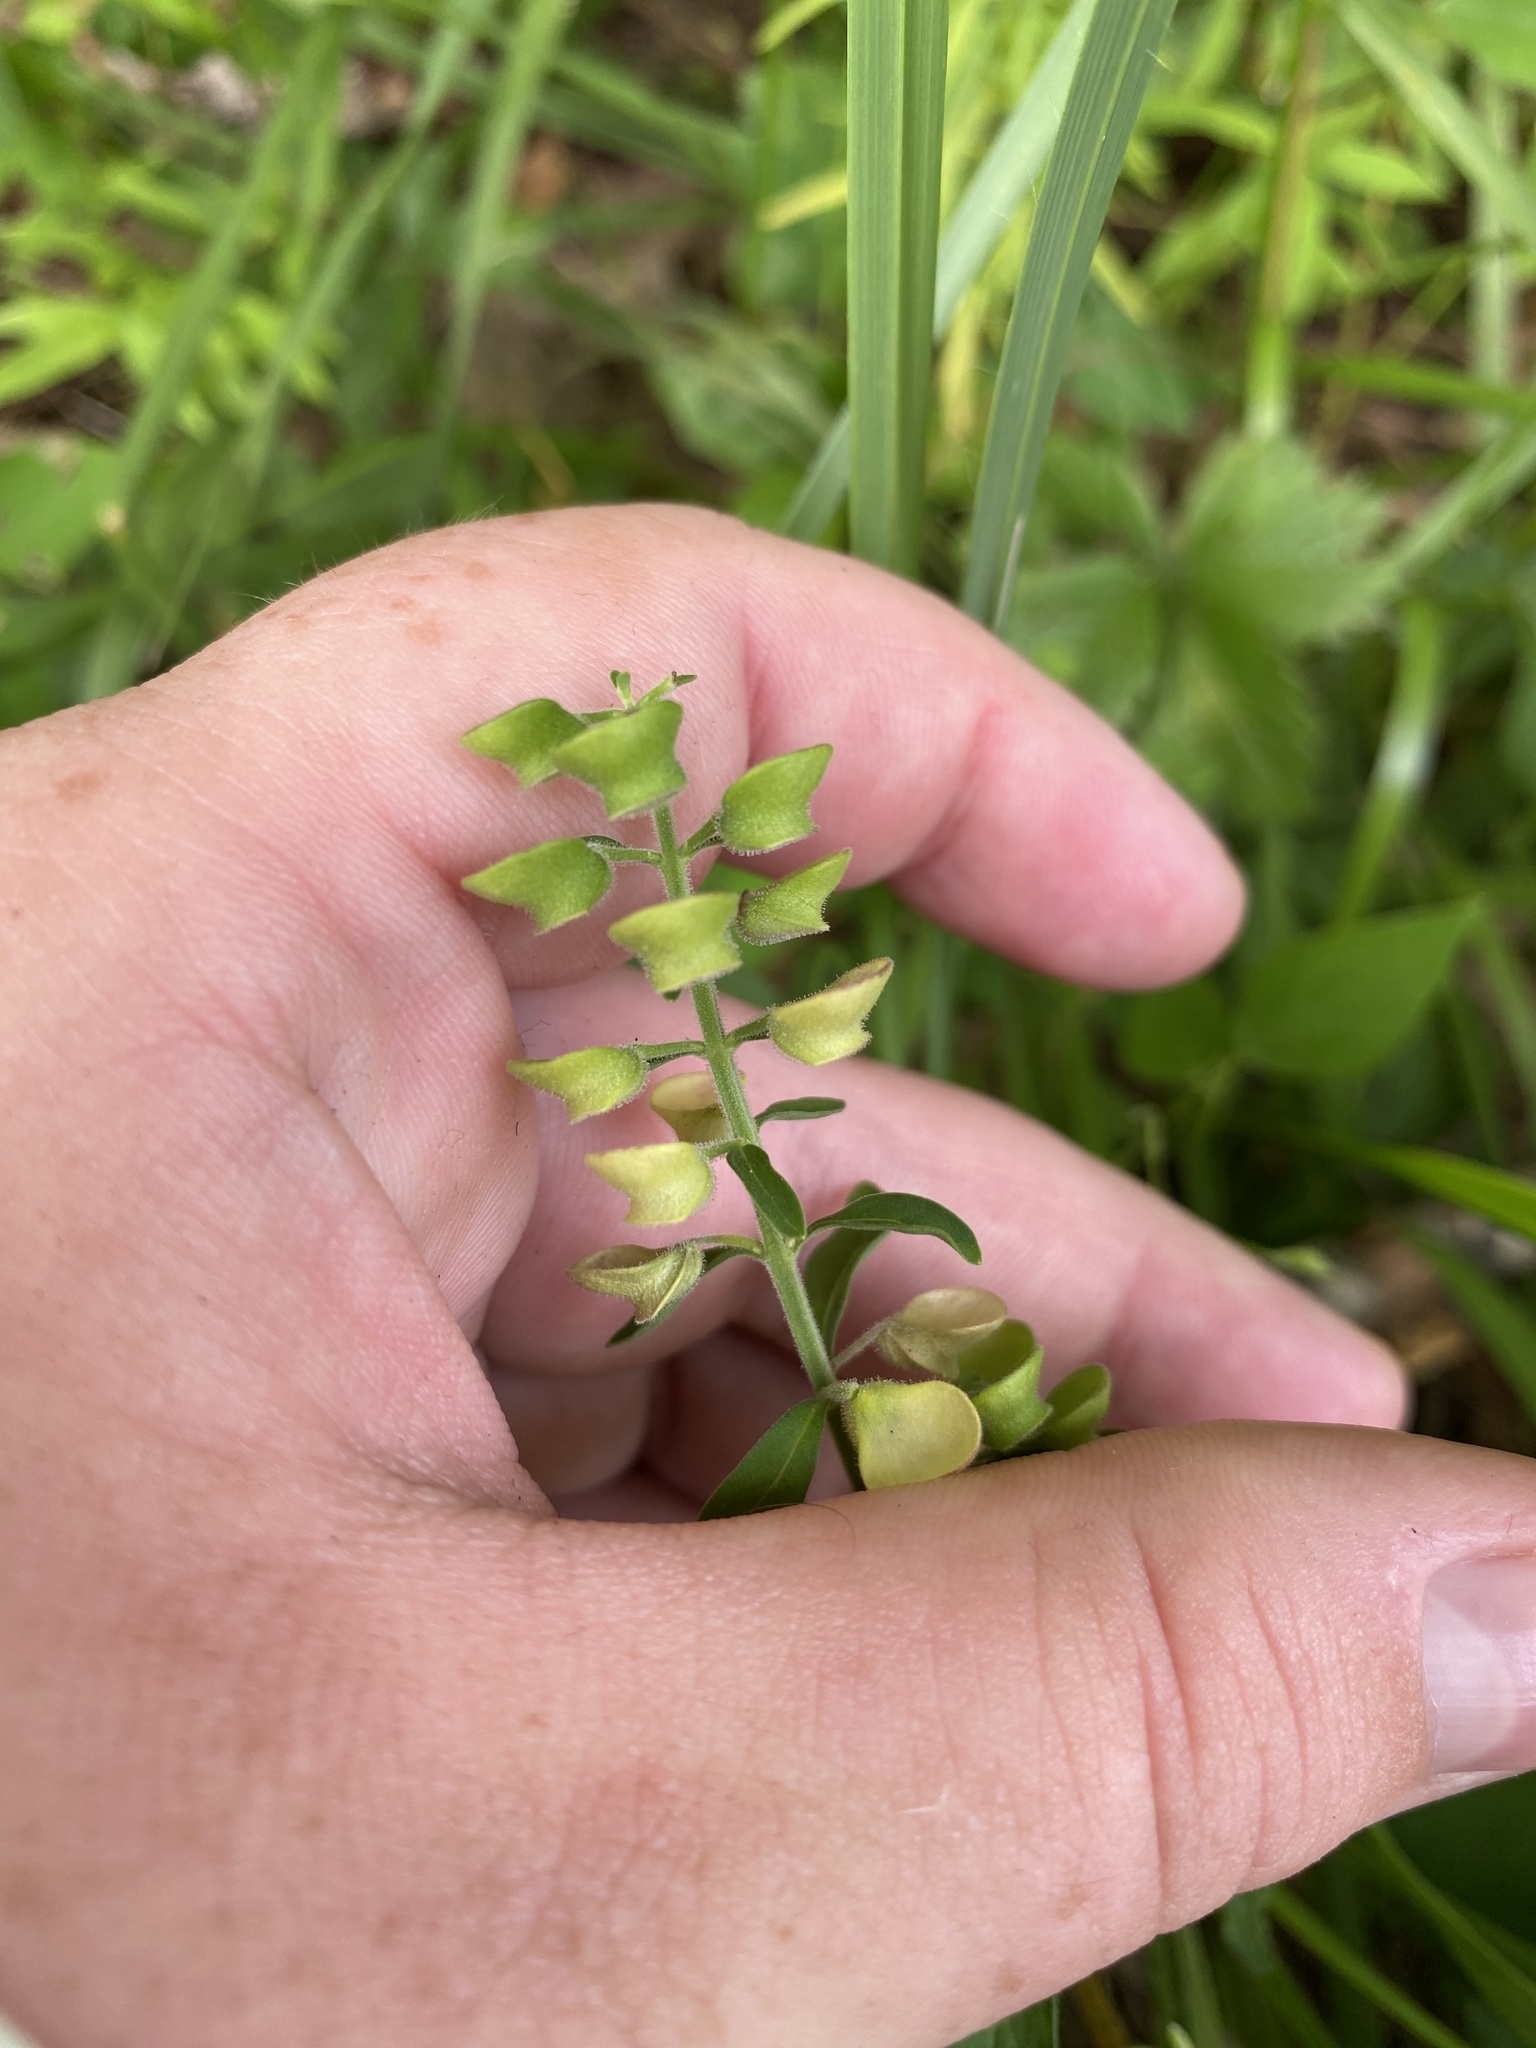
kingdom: Plantae
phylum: Tracheophyta
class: Magnoliopsida
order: Lamiales
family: Lamiaceae
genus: Scutellaria
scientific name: Scutellaria integrifolia
